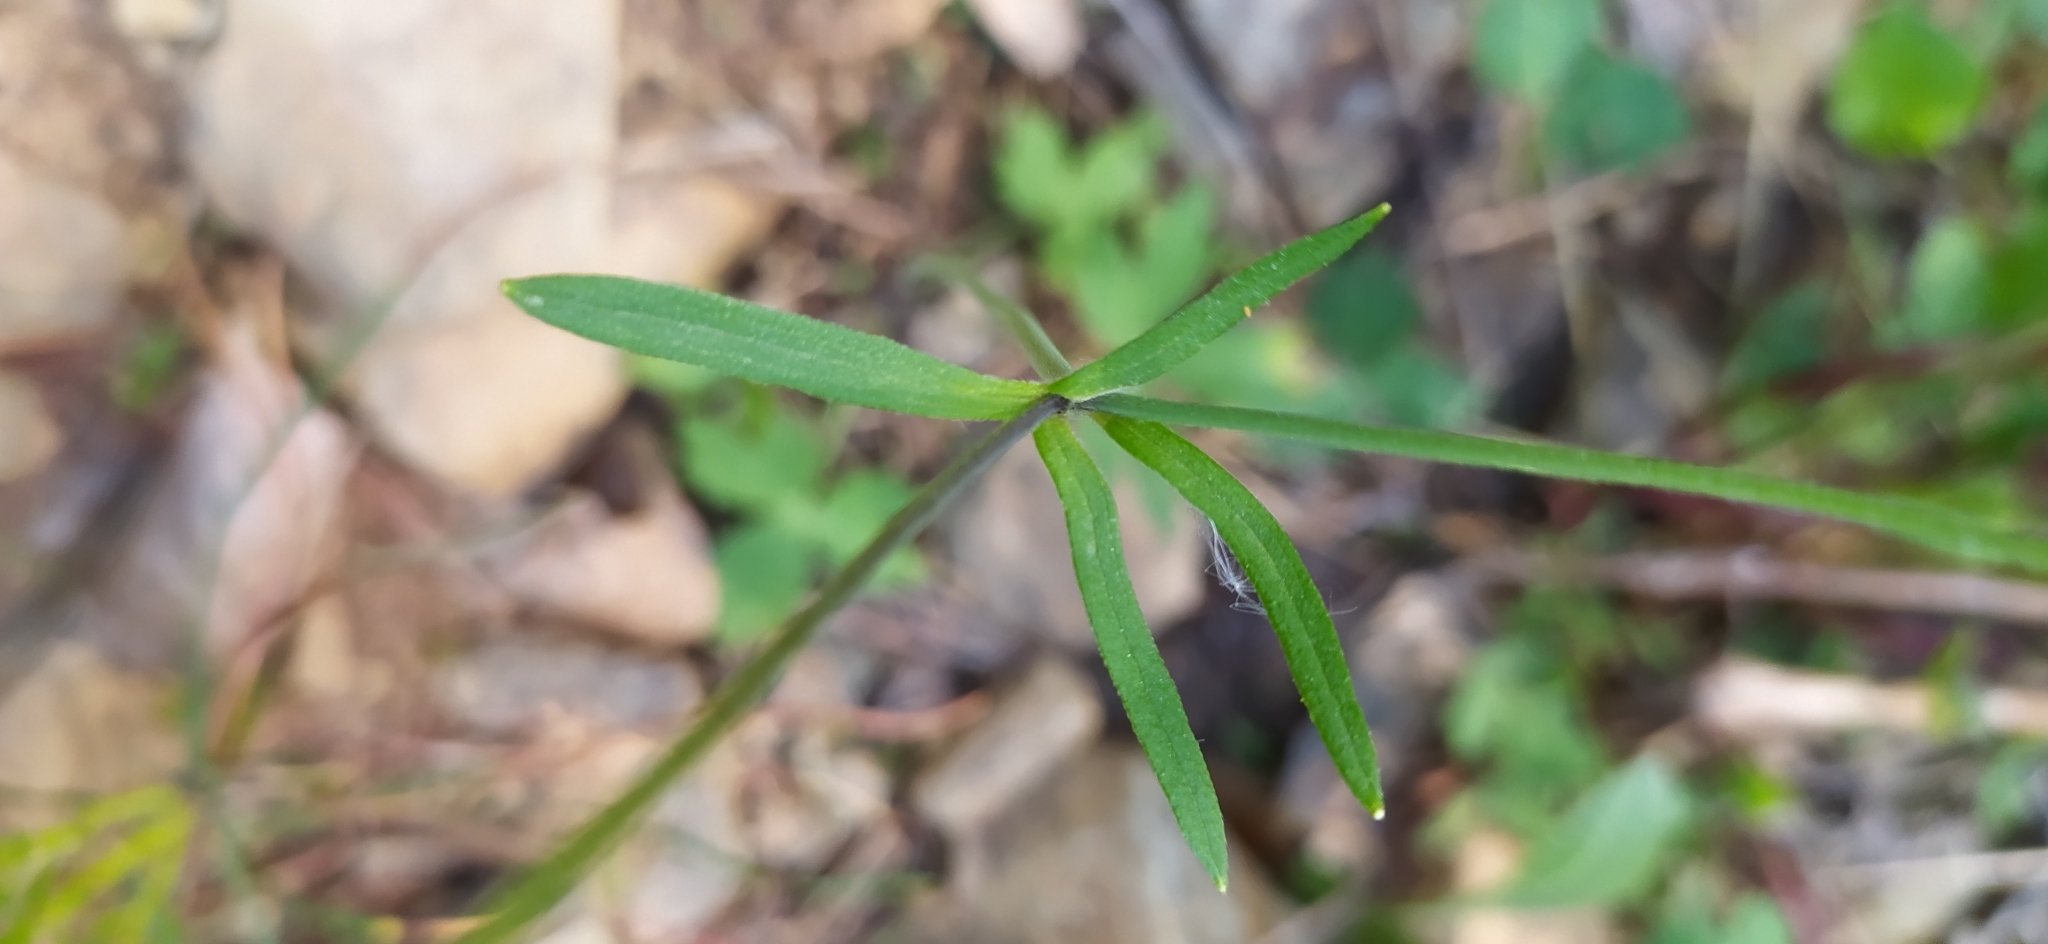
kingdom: Plantae
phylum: Tracheophyta
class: Magnoliopsida
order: Ranunculales
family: Ranunculaceae
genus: Ranunculus
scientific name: Ranunculus propinquus
